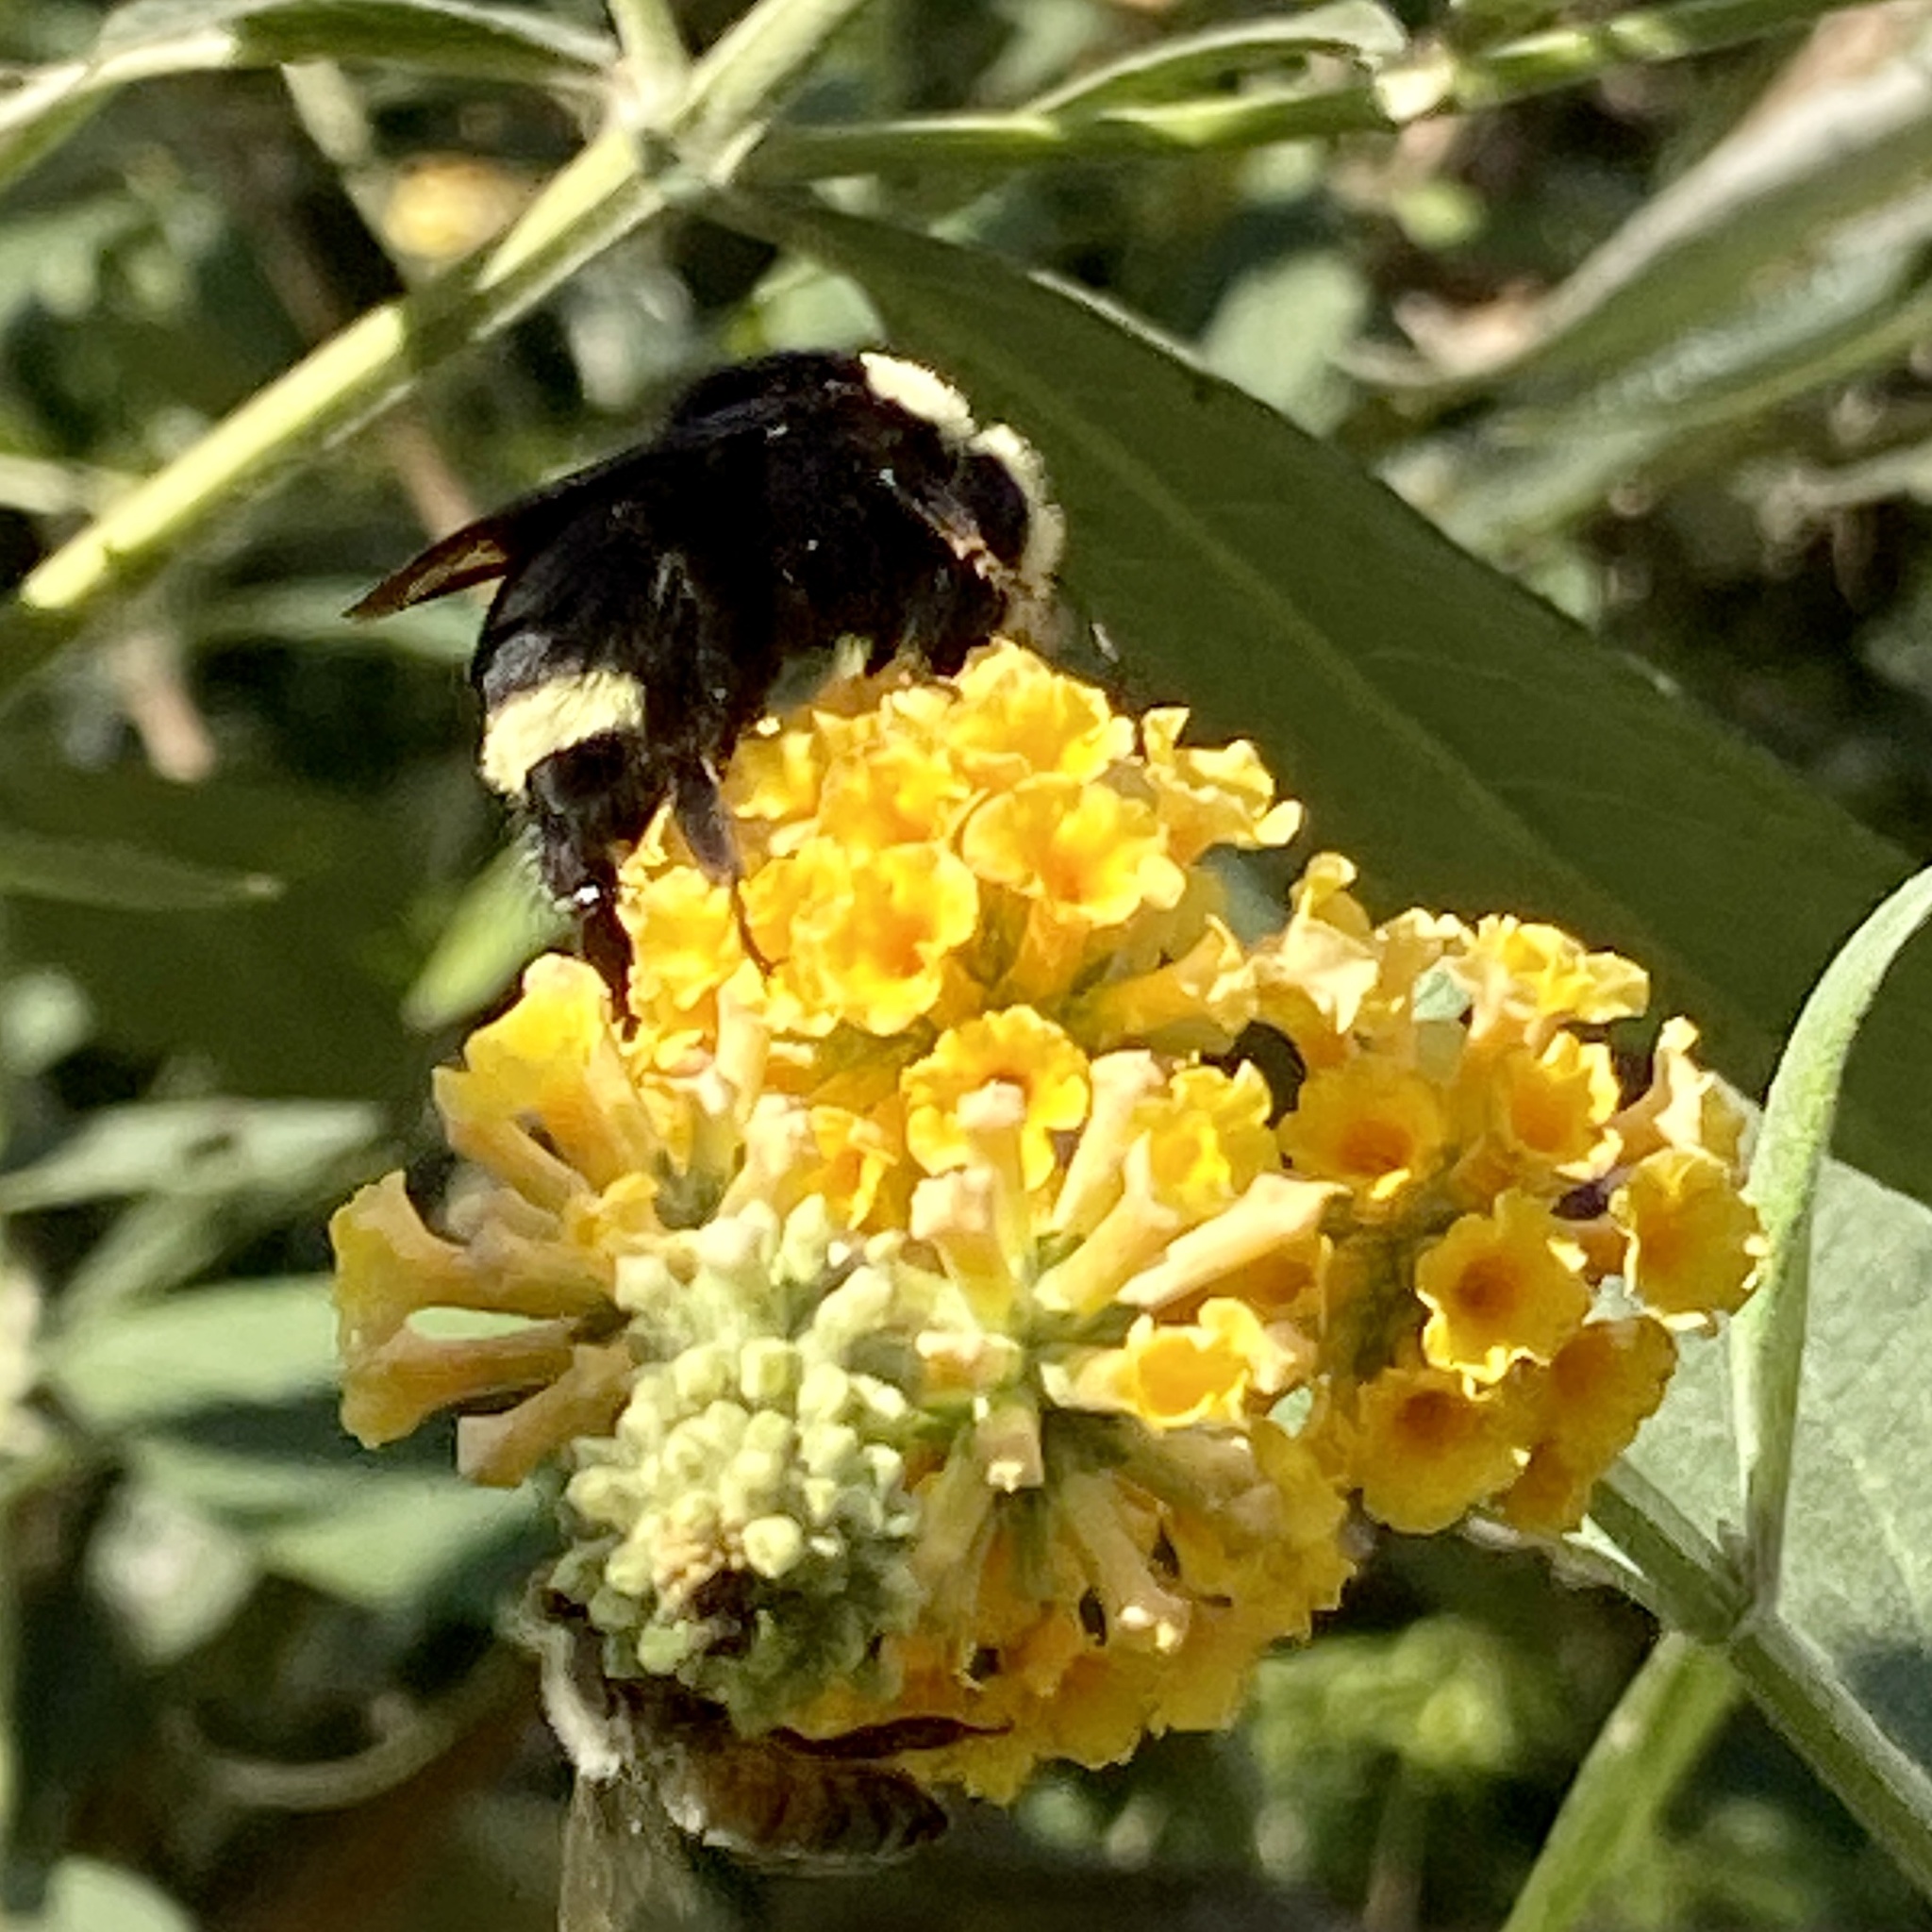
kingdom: Animalia
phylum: Arthropoda
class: Insecta
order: Hymenoptera
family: Apidae
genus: Bombus
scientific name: Bombus vosnesenskii
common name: Vosnesensky bumble bee
